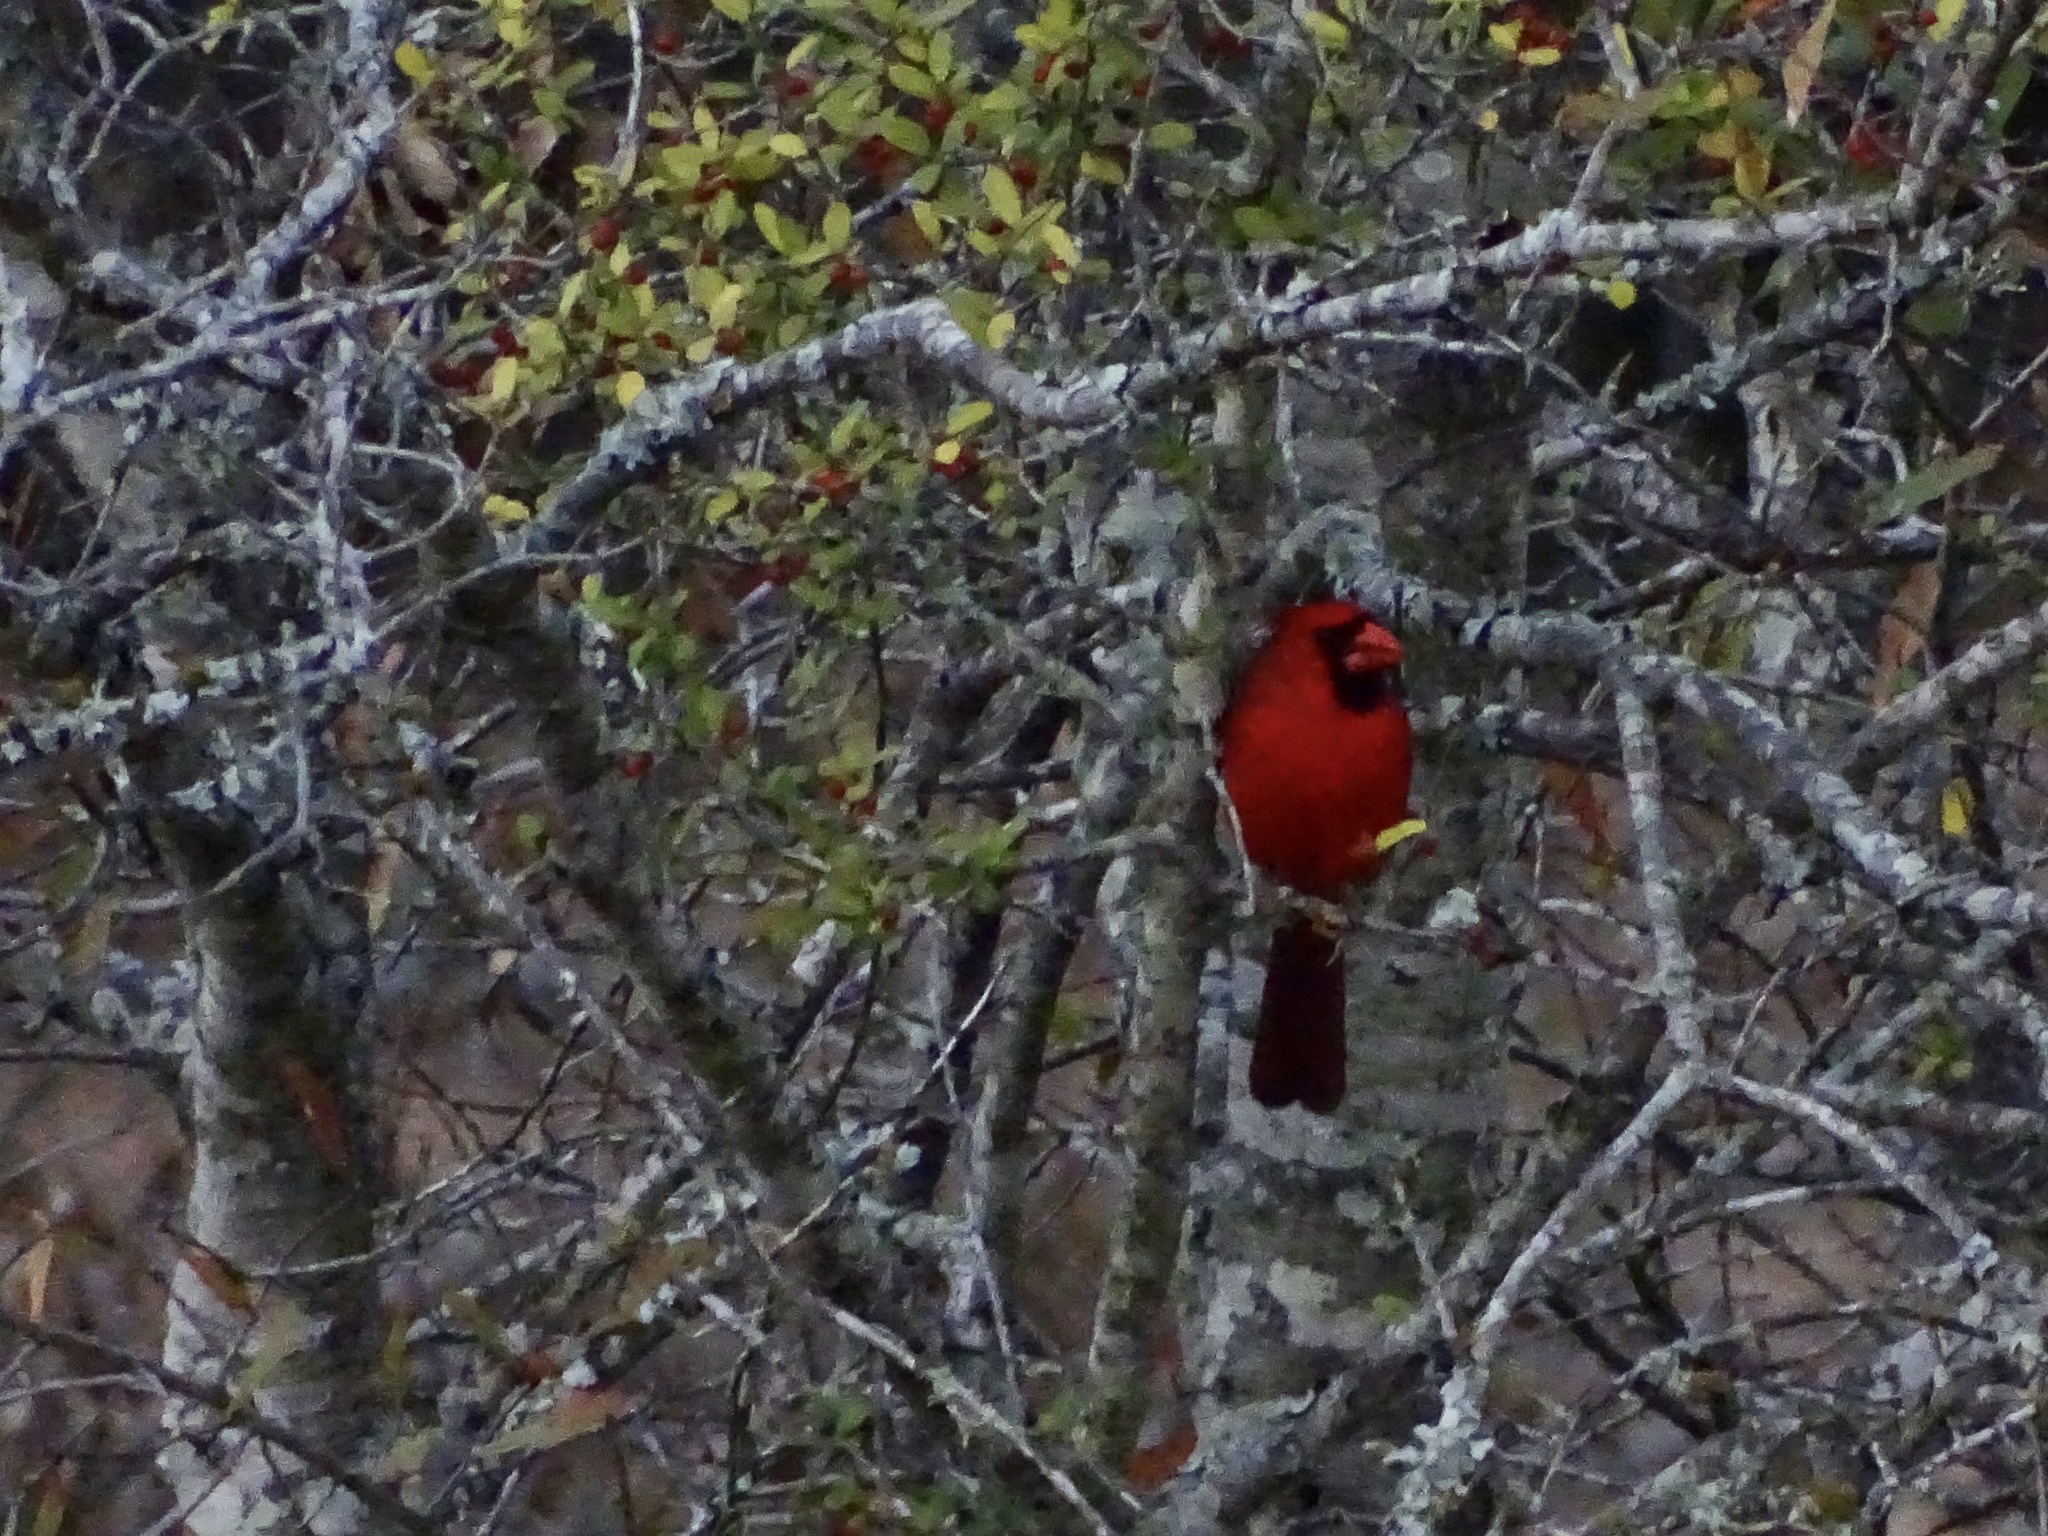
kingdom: Animalia
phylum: Chordata
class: Aves
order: Passeriformes
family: Cardinalidae
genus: Cardinalis
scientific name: Cardinalis cardinalis
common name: Northern cardinal
